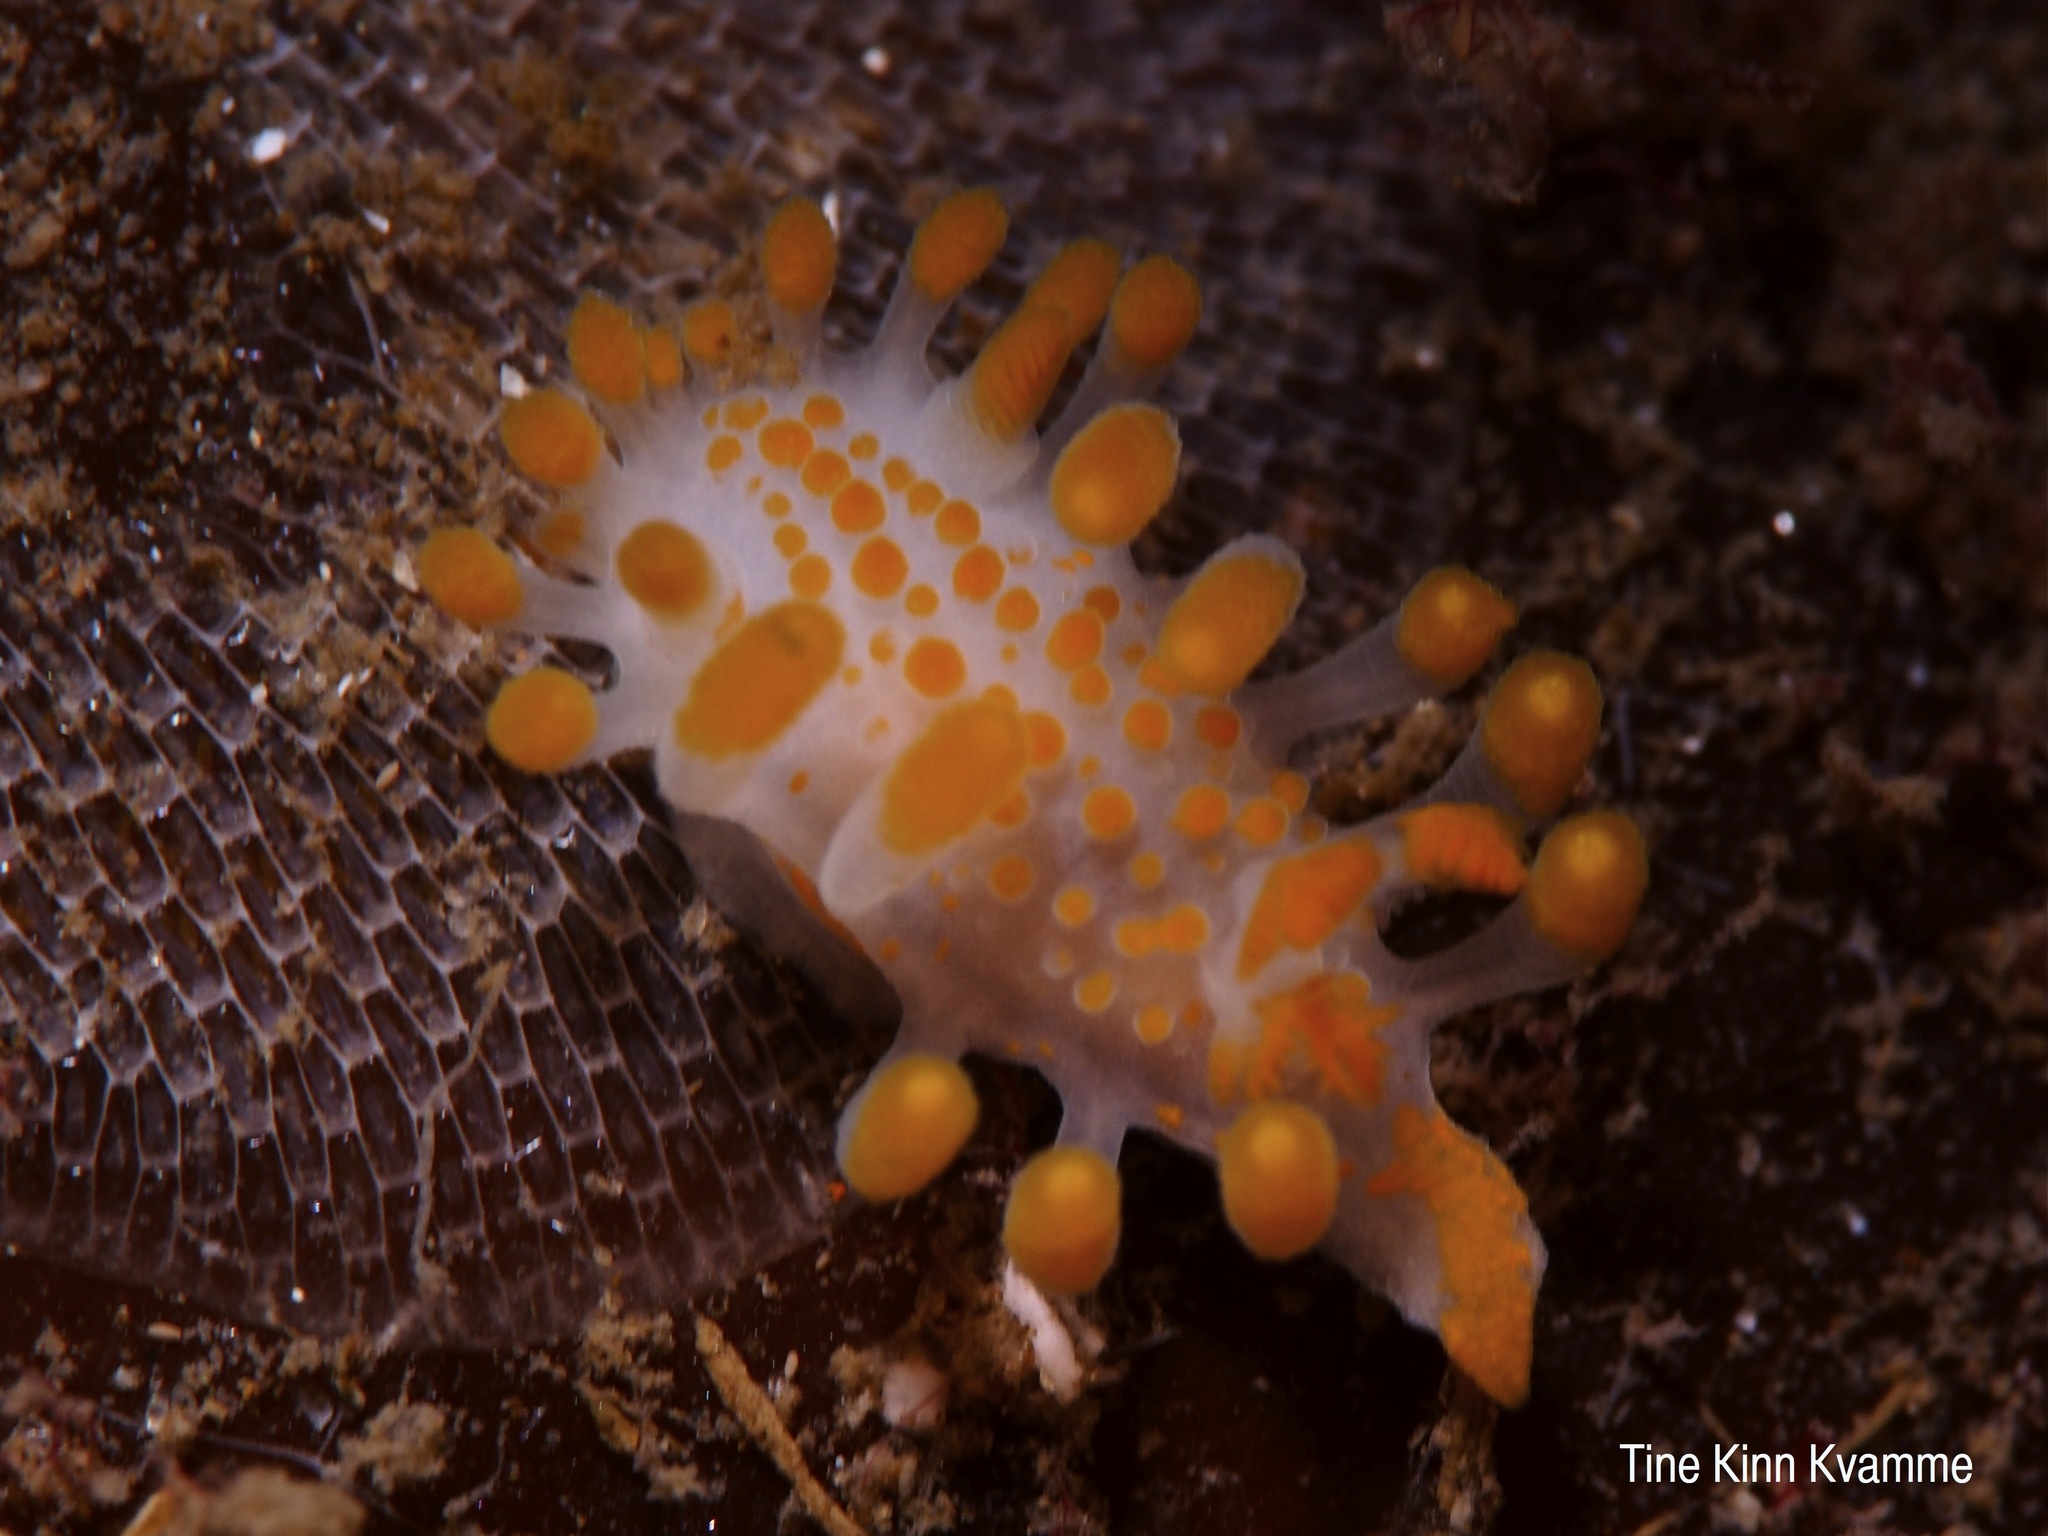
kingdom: Animalia
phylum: Mollusca
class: Gastropoda
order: Nudibranchia
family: Polyceridae
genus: Limacia
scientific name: Limacia clavigera
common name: Orange-clubbed sea slug
